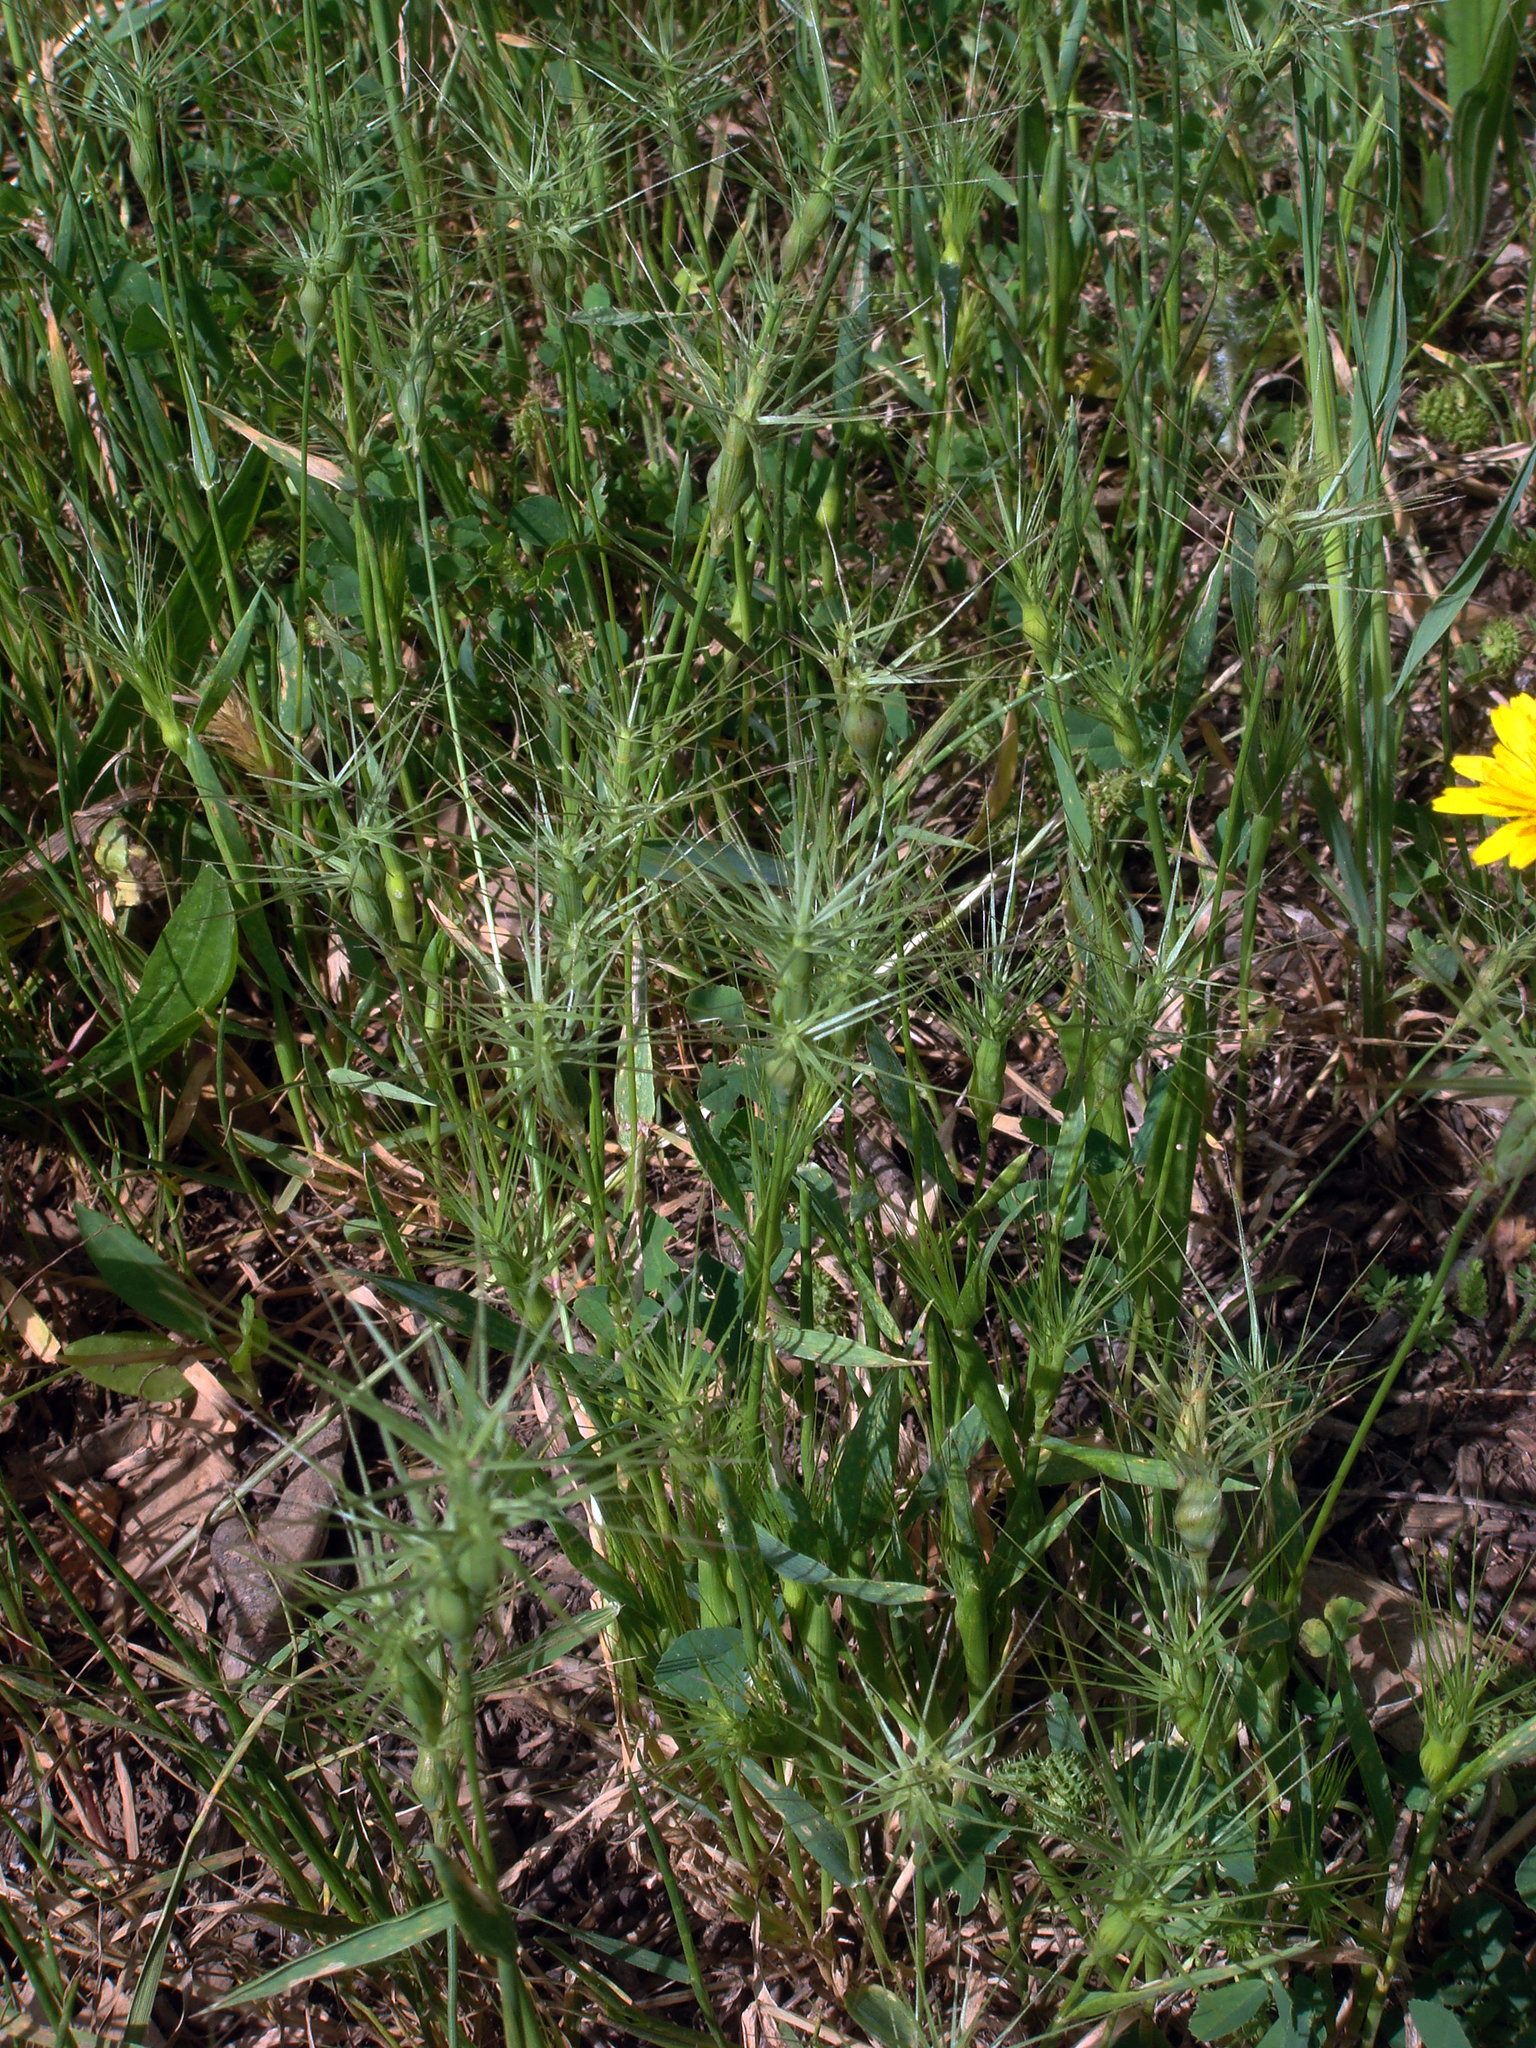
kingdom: Plantae
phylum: Tracheophyta
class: Liliopsida
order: Poales
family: Poaceae
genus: Aegilops
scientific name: Aegilops geniculata
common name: Ovate goat grass
